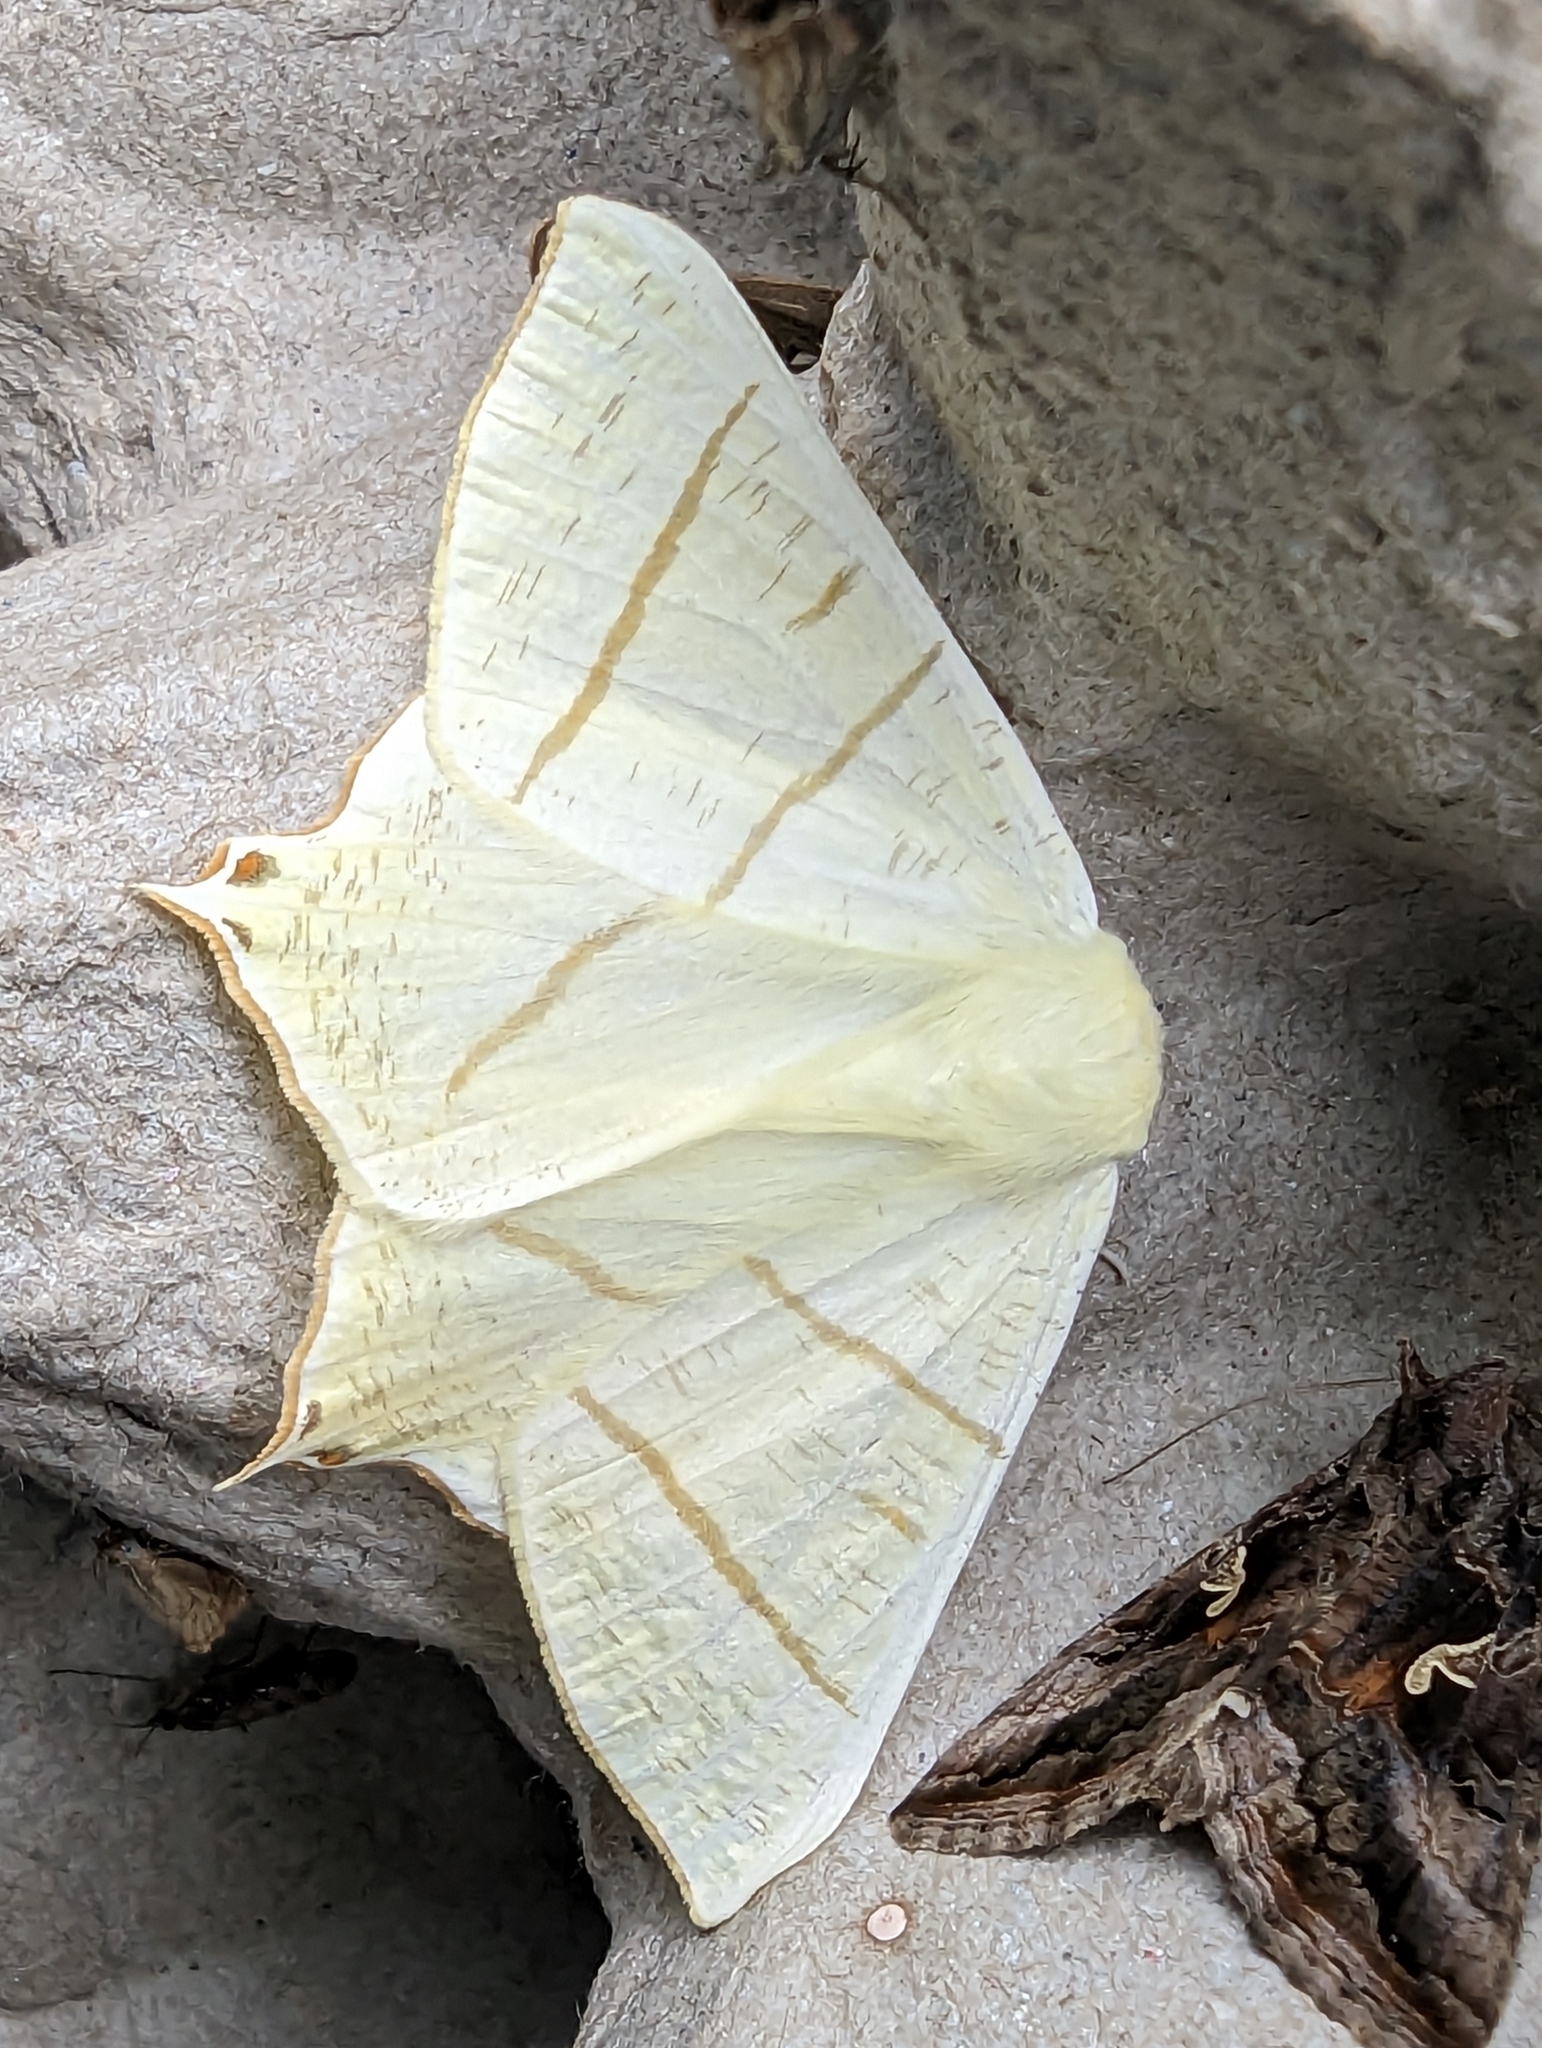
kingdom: Animalia
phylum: Arthropoda
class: Insecta
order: Lepidoptera
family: Geometridae
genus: Ourapteryx
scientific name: Ourapteryx sambucaria
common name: Swallow-tailed moth
